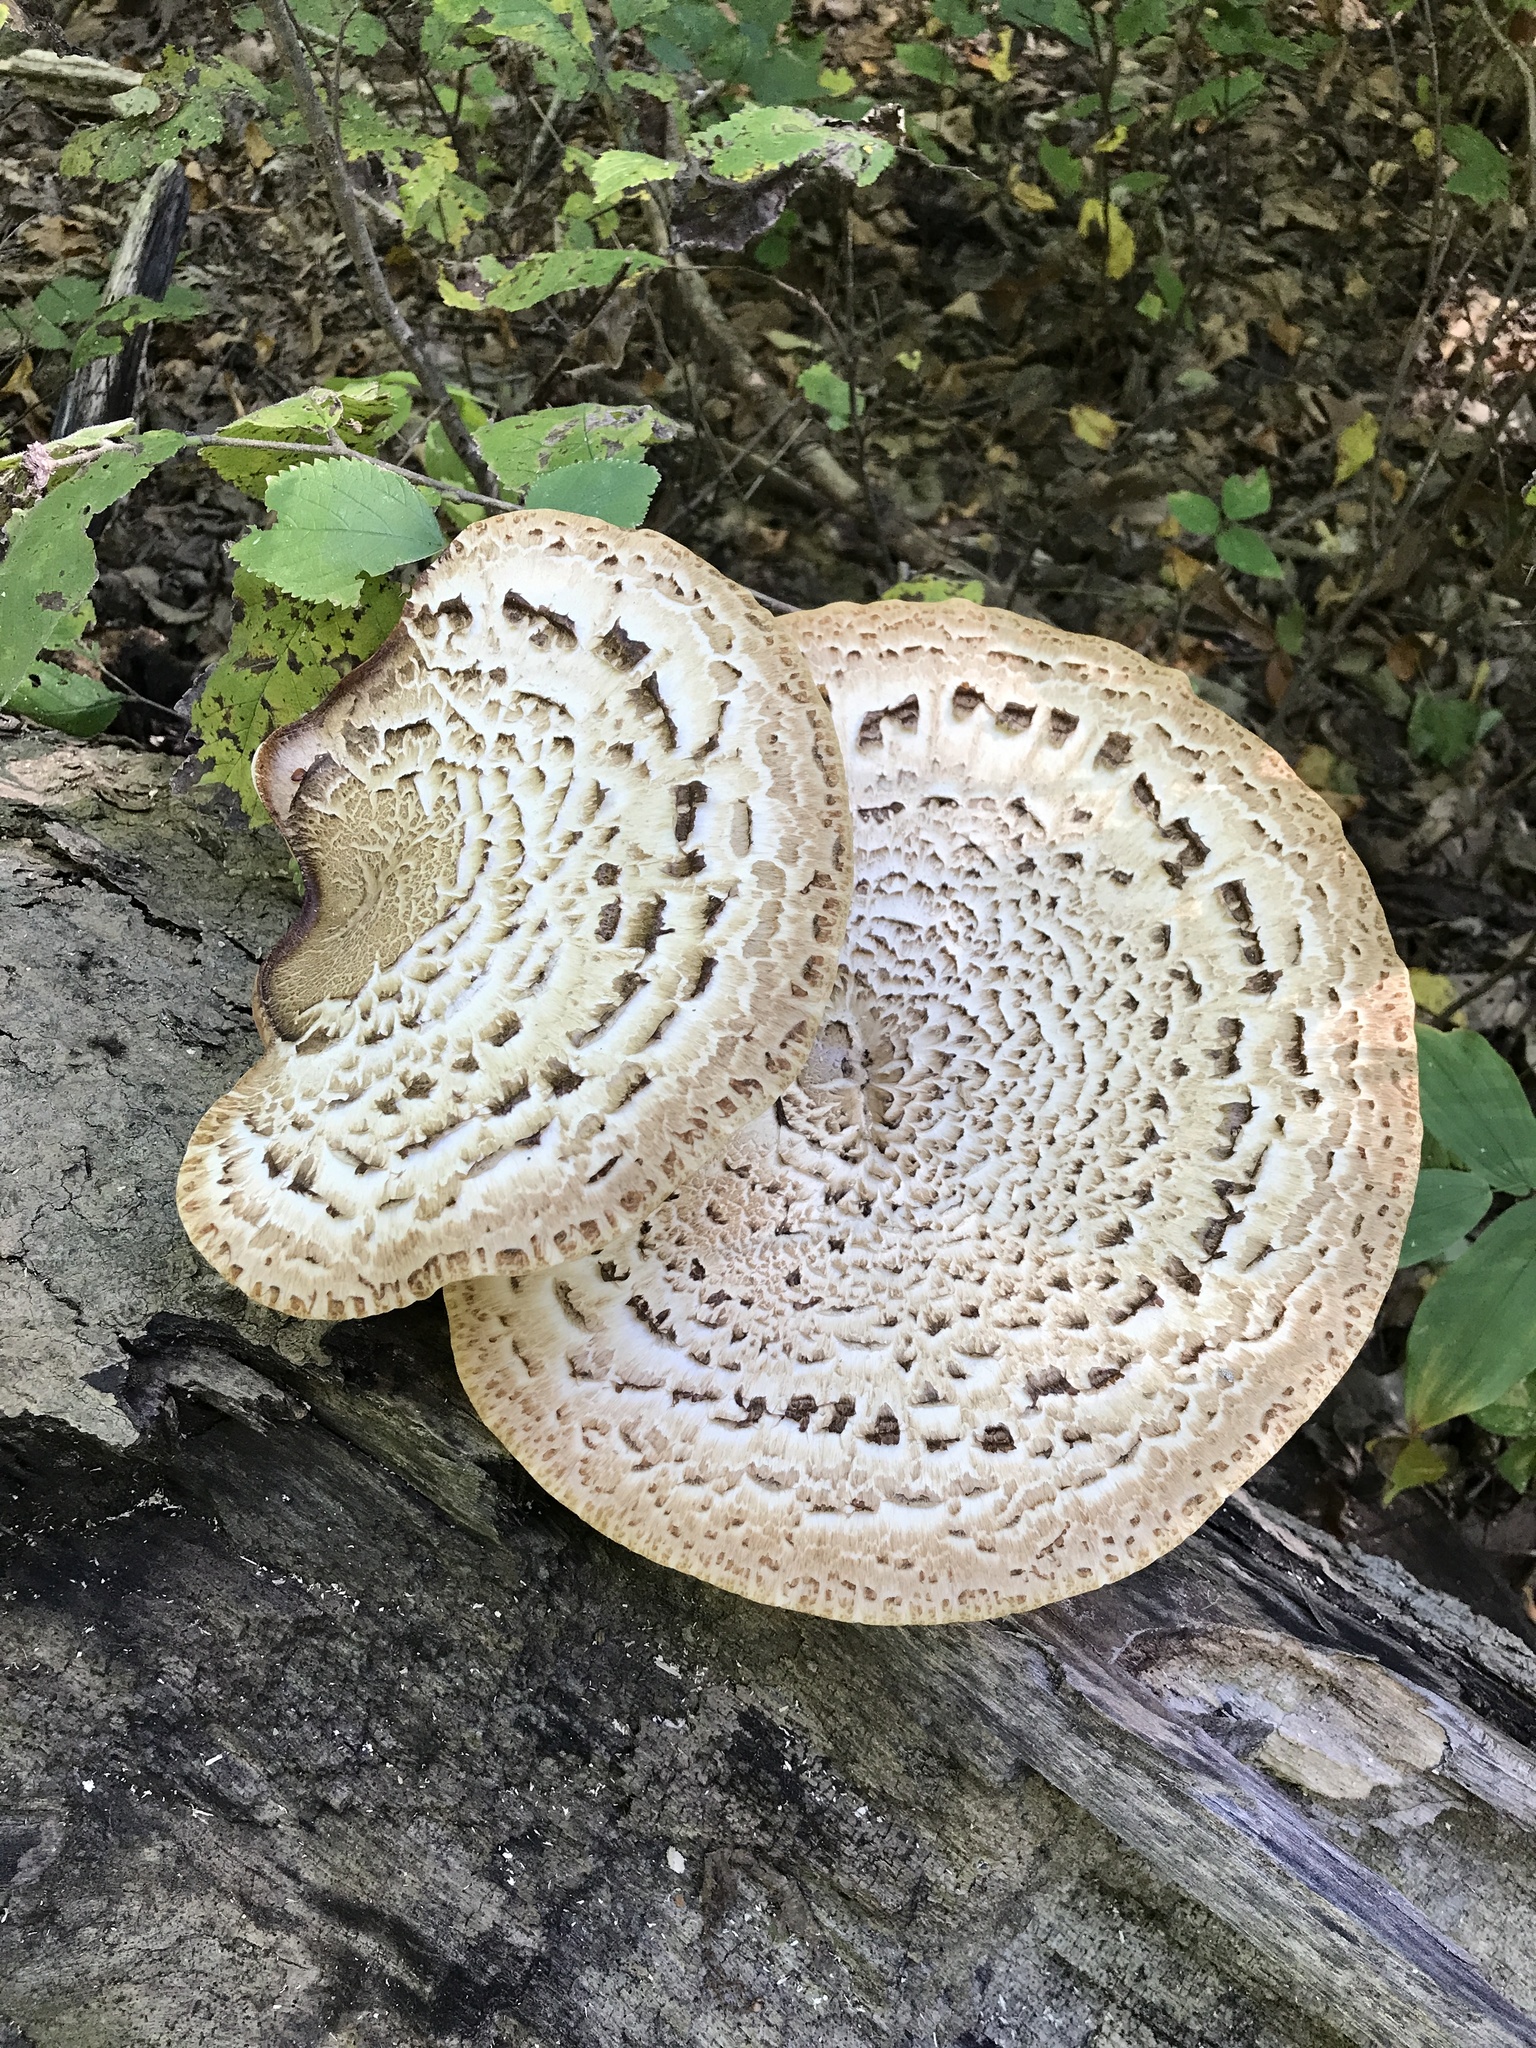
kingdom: Fungi
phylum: Basidiomycota
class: Agaricomycetes
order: Polyporales
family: Polyporaceae
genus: Cerioporus
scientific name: Cerioporus squamosus
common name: Dryad's saddle
